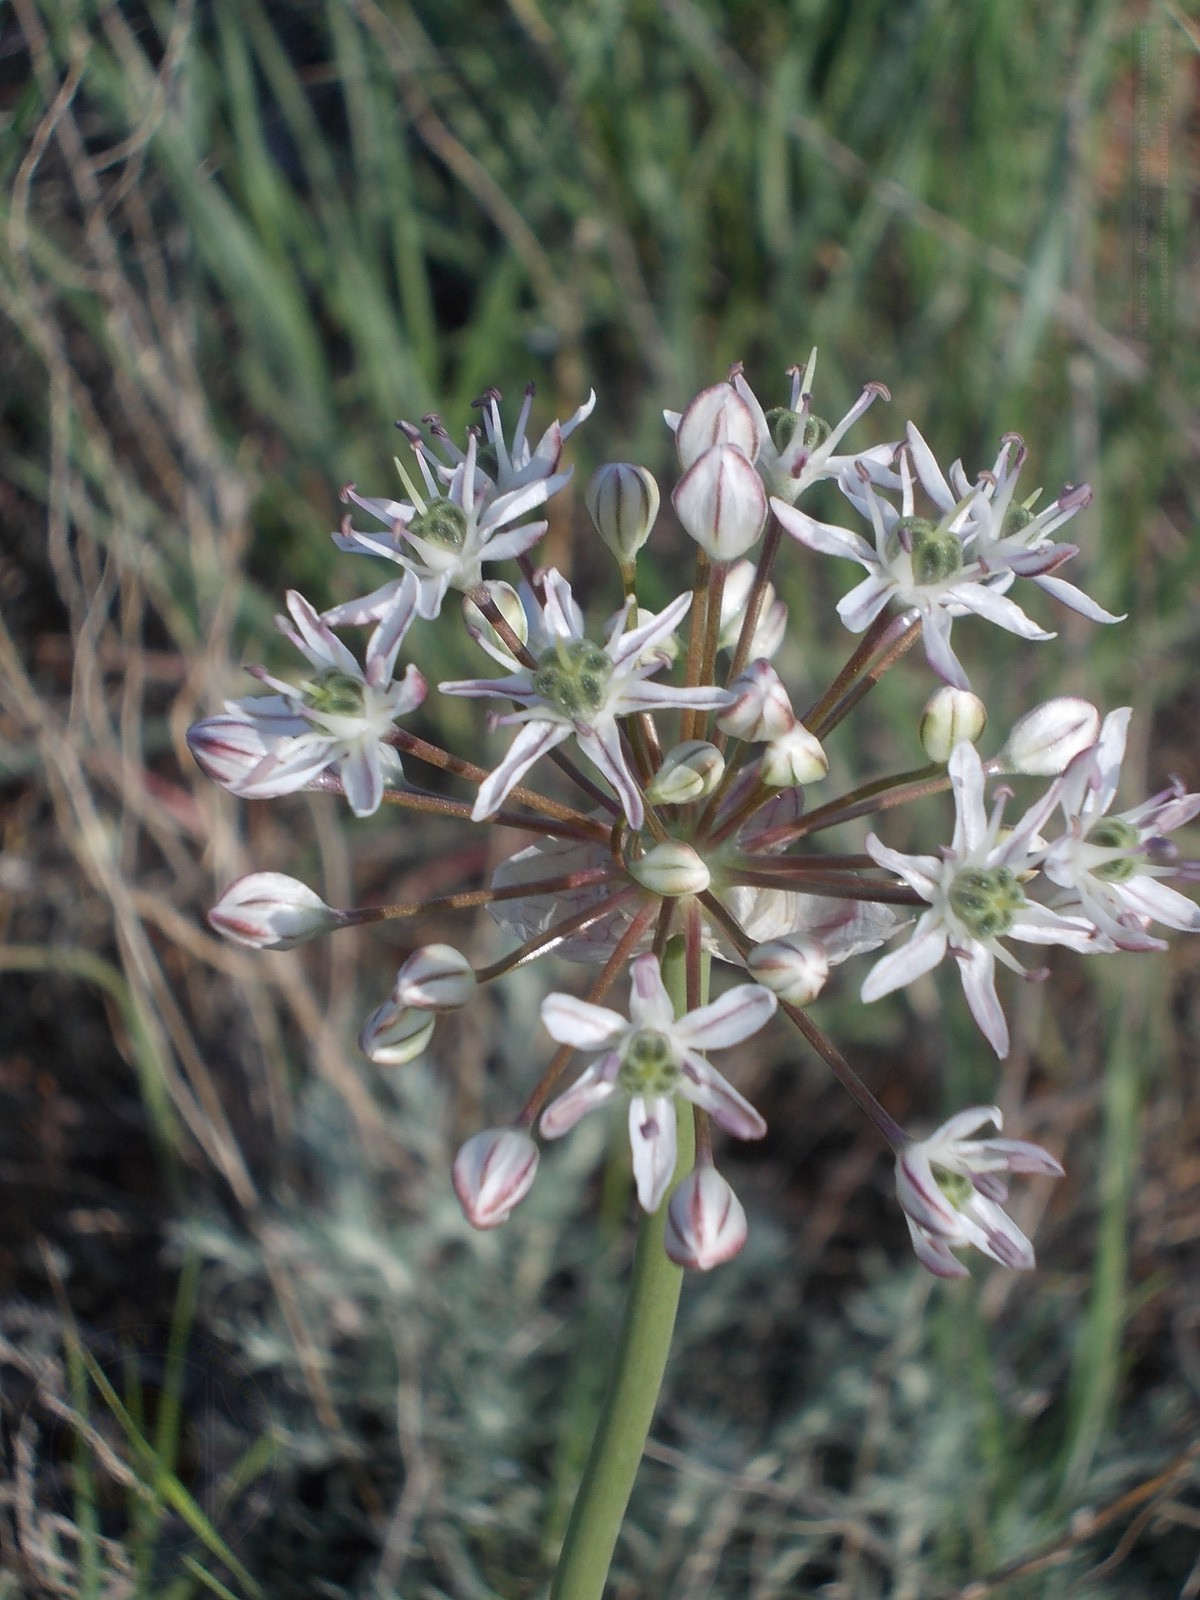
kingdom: Plantae
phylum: Tracheophyta
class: Liliopsida
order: Asparagales
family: Amaryllidaceae
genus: Allium
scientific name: Allium tulipifolium
